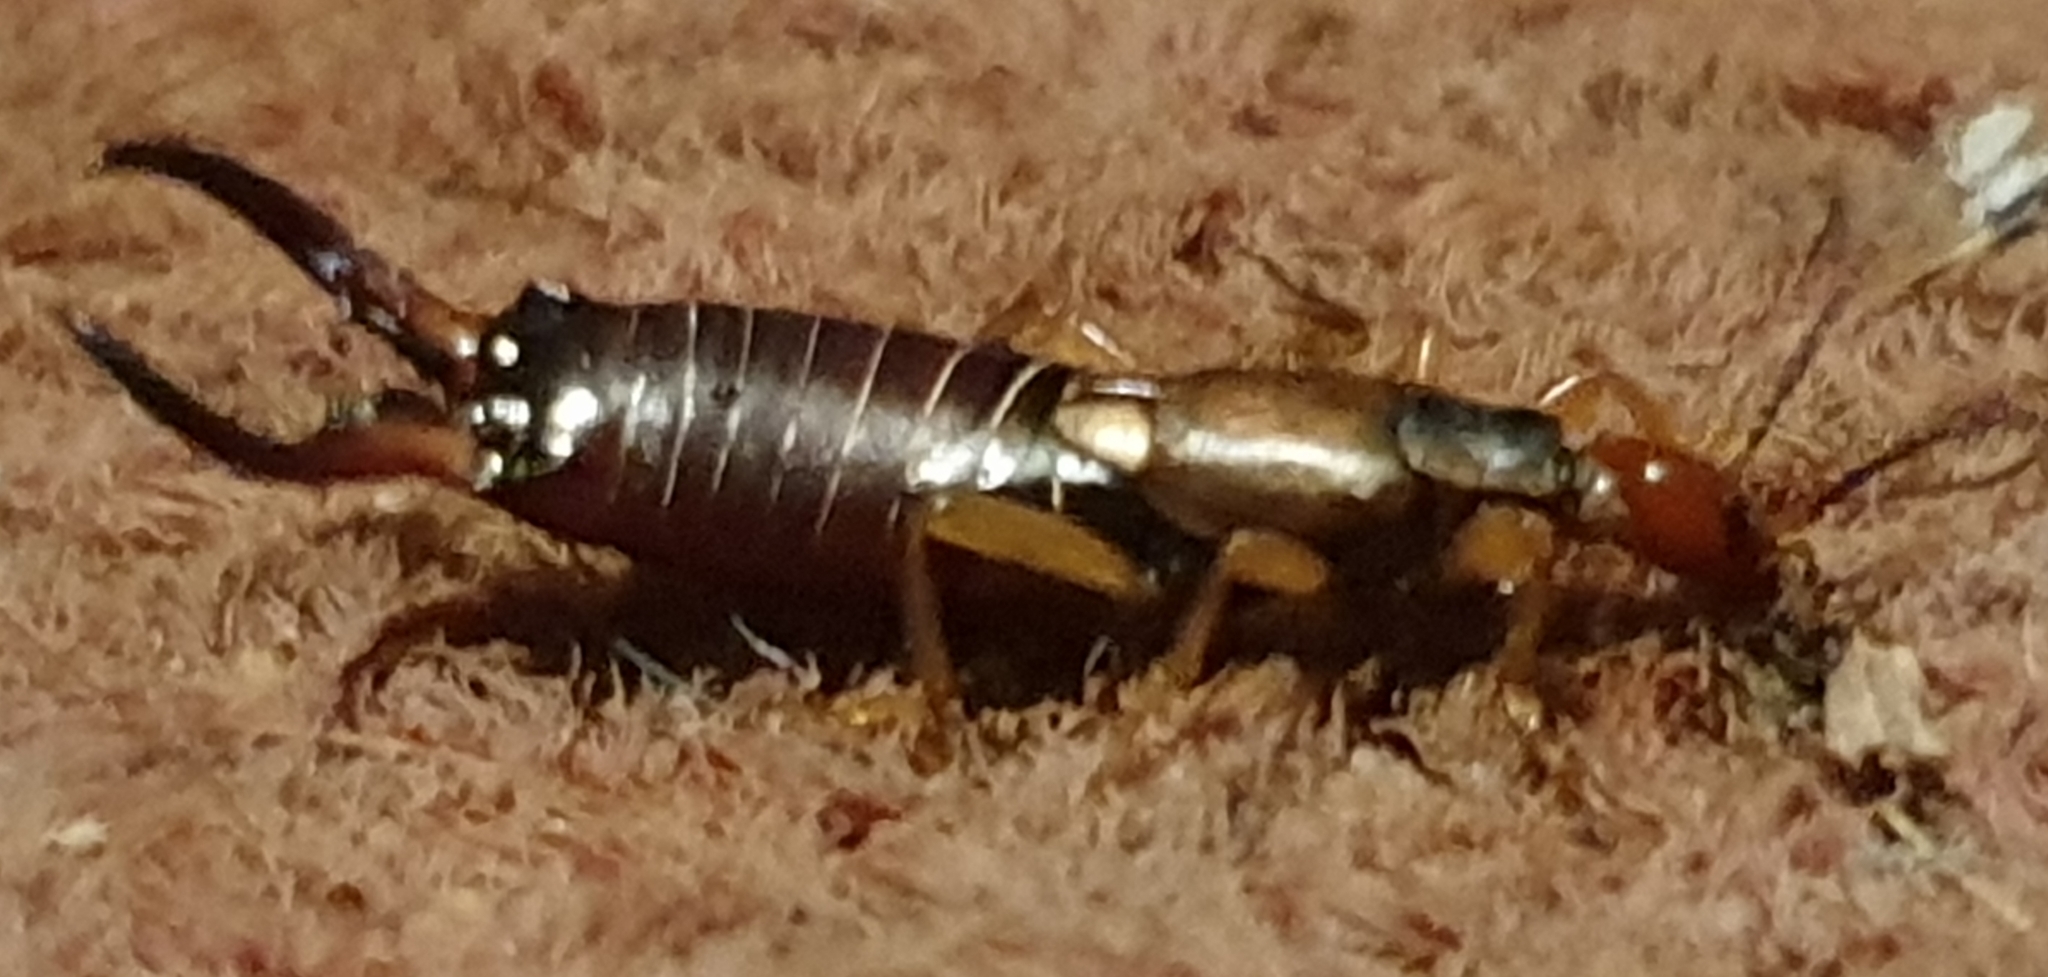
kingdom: Animalia
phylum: Arthropoda
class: Insecta
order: Dermaptera
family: Forficulidae
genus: Forficula
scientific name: Forficula
